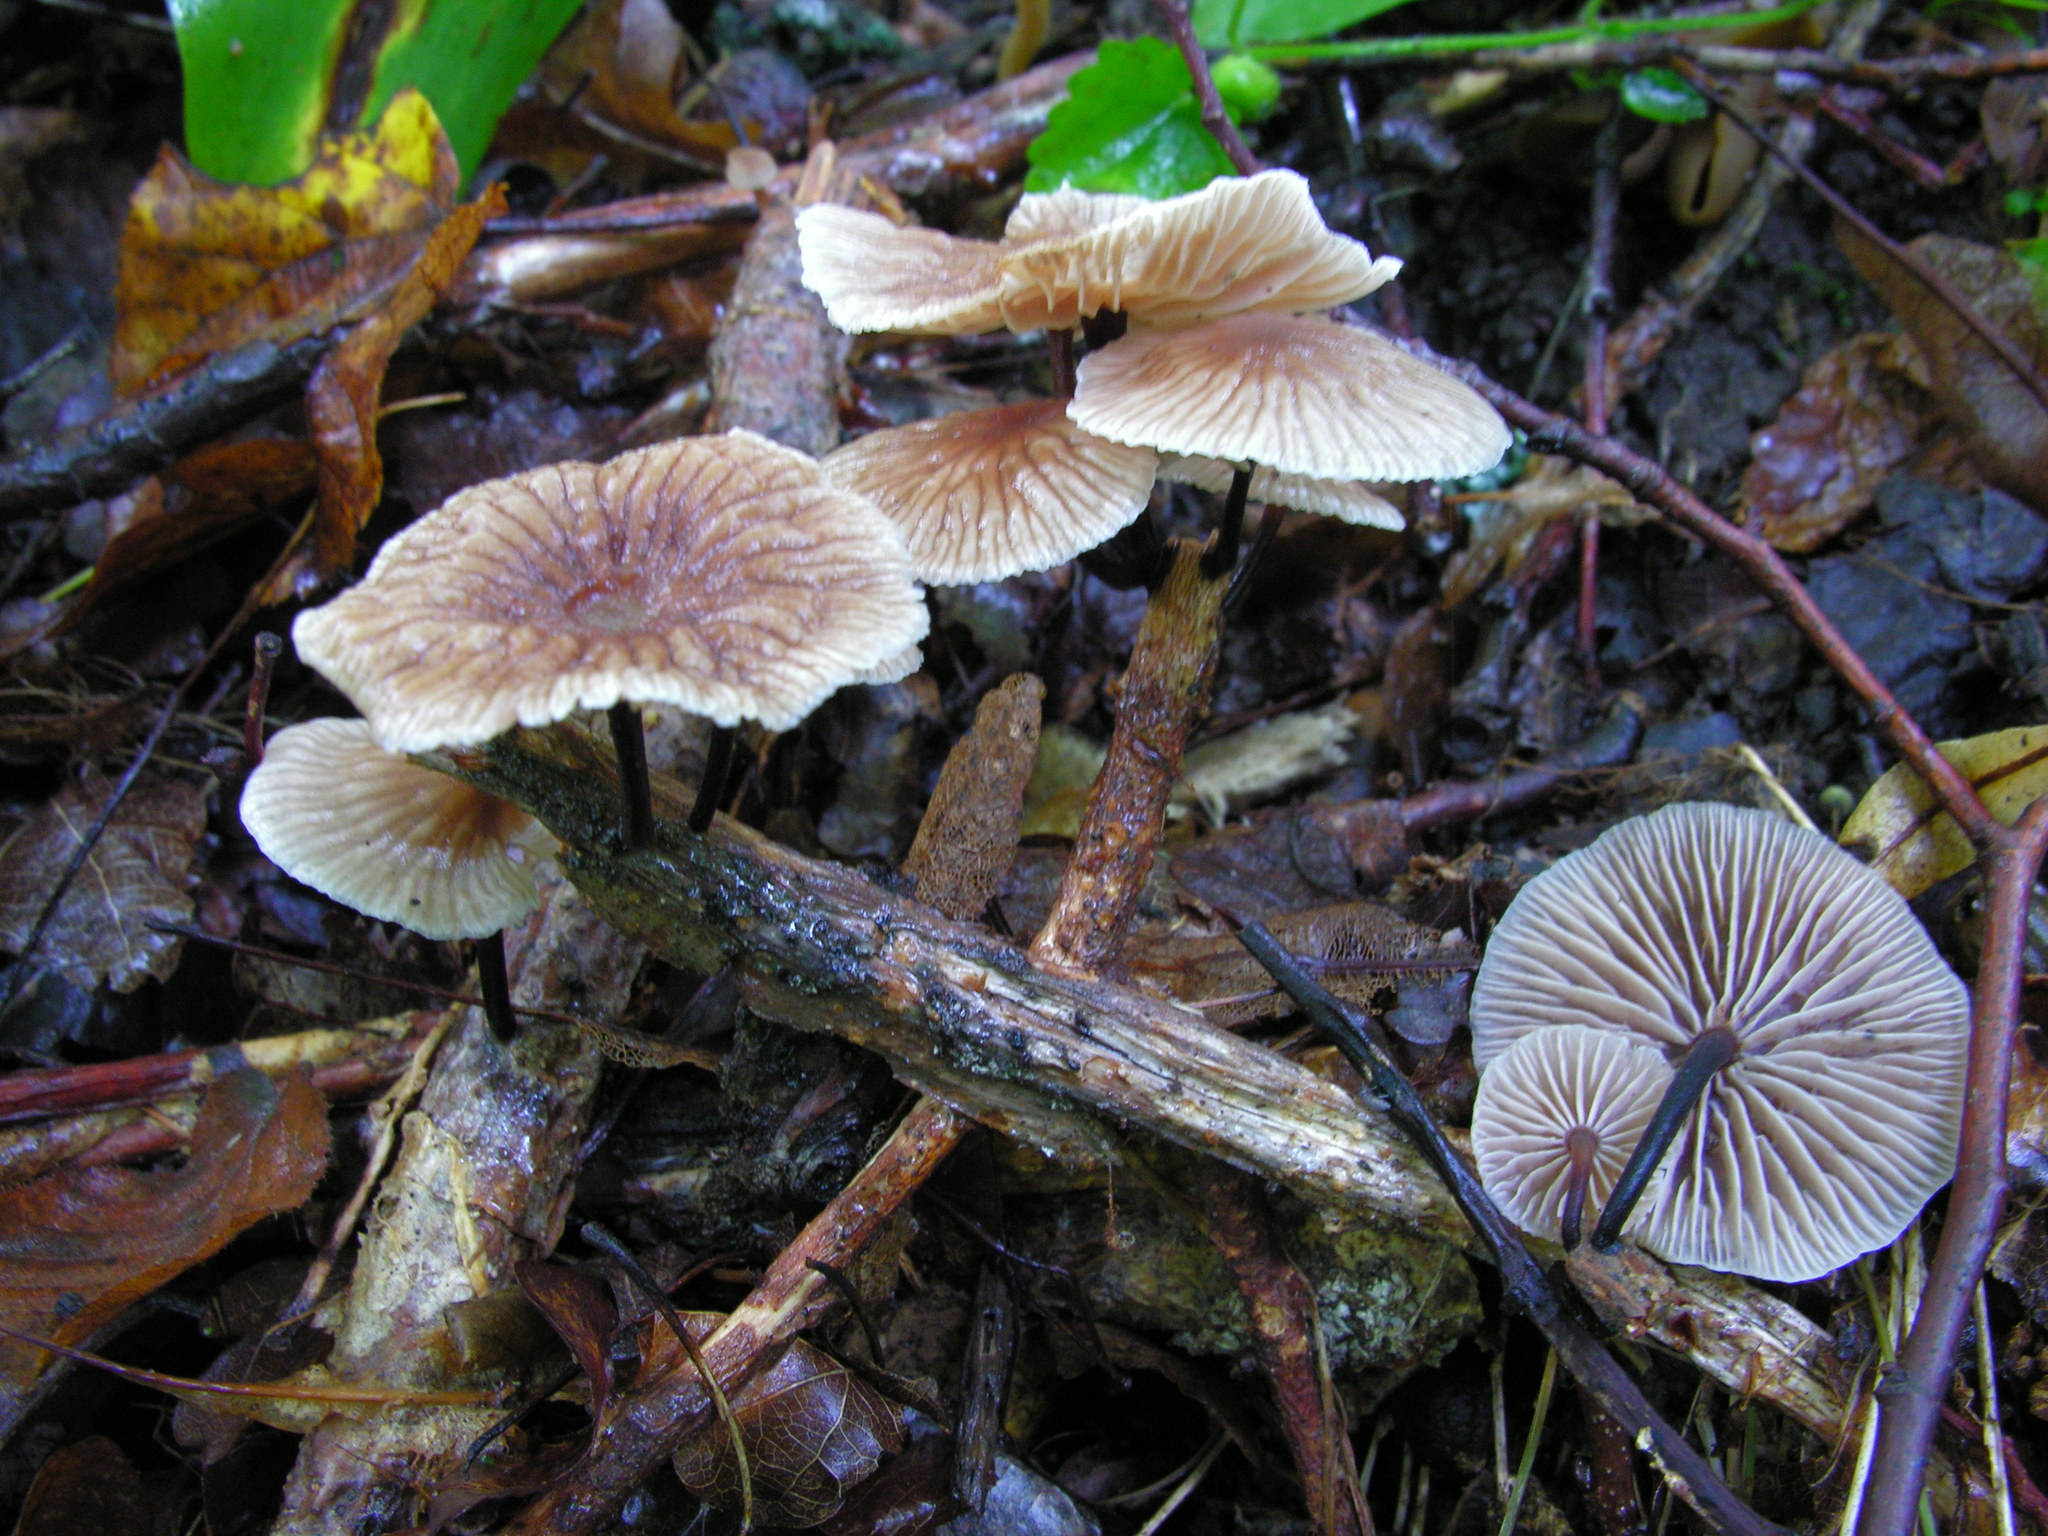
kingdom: Fungi
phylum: Basidiomycota
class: Agaricomycetes
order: Agaricales
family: Omphalotaceae
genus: Gymnopus
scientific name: Gymnopus foetidus
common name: Foetid parachute
